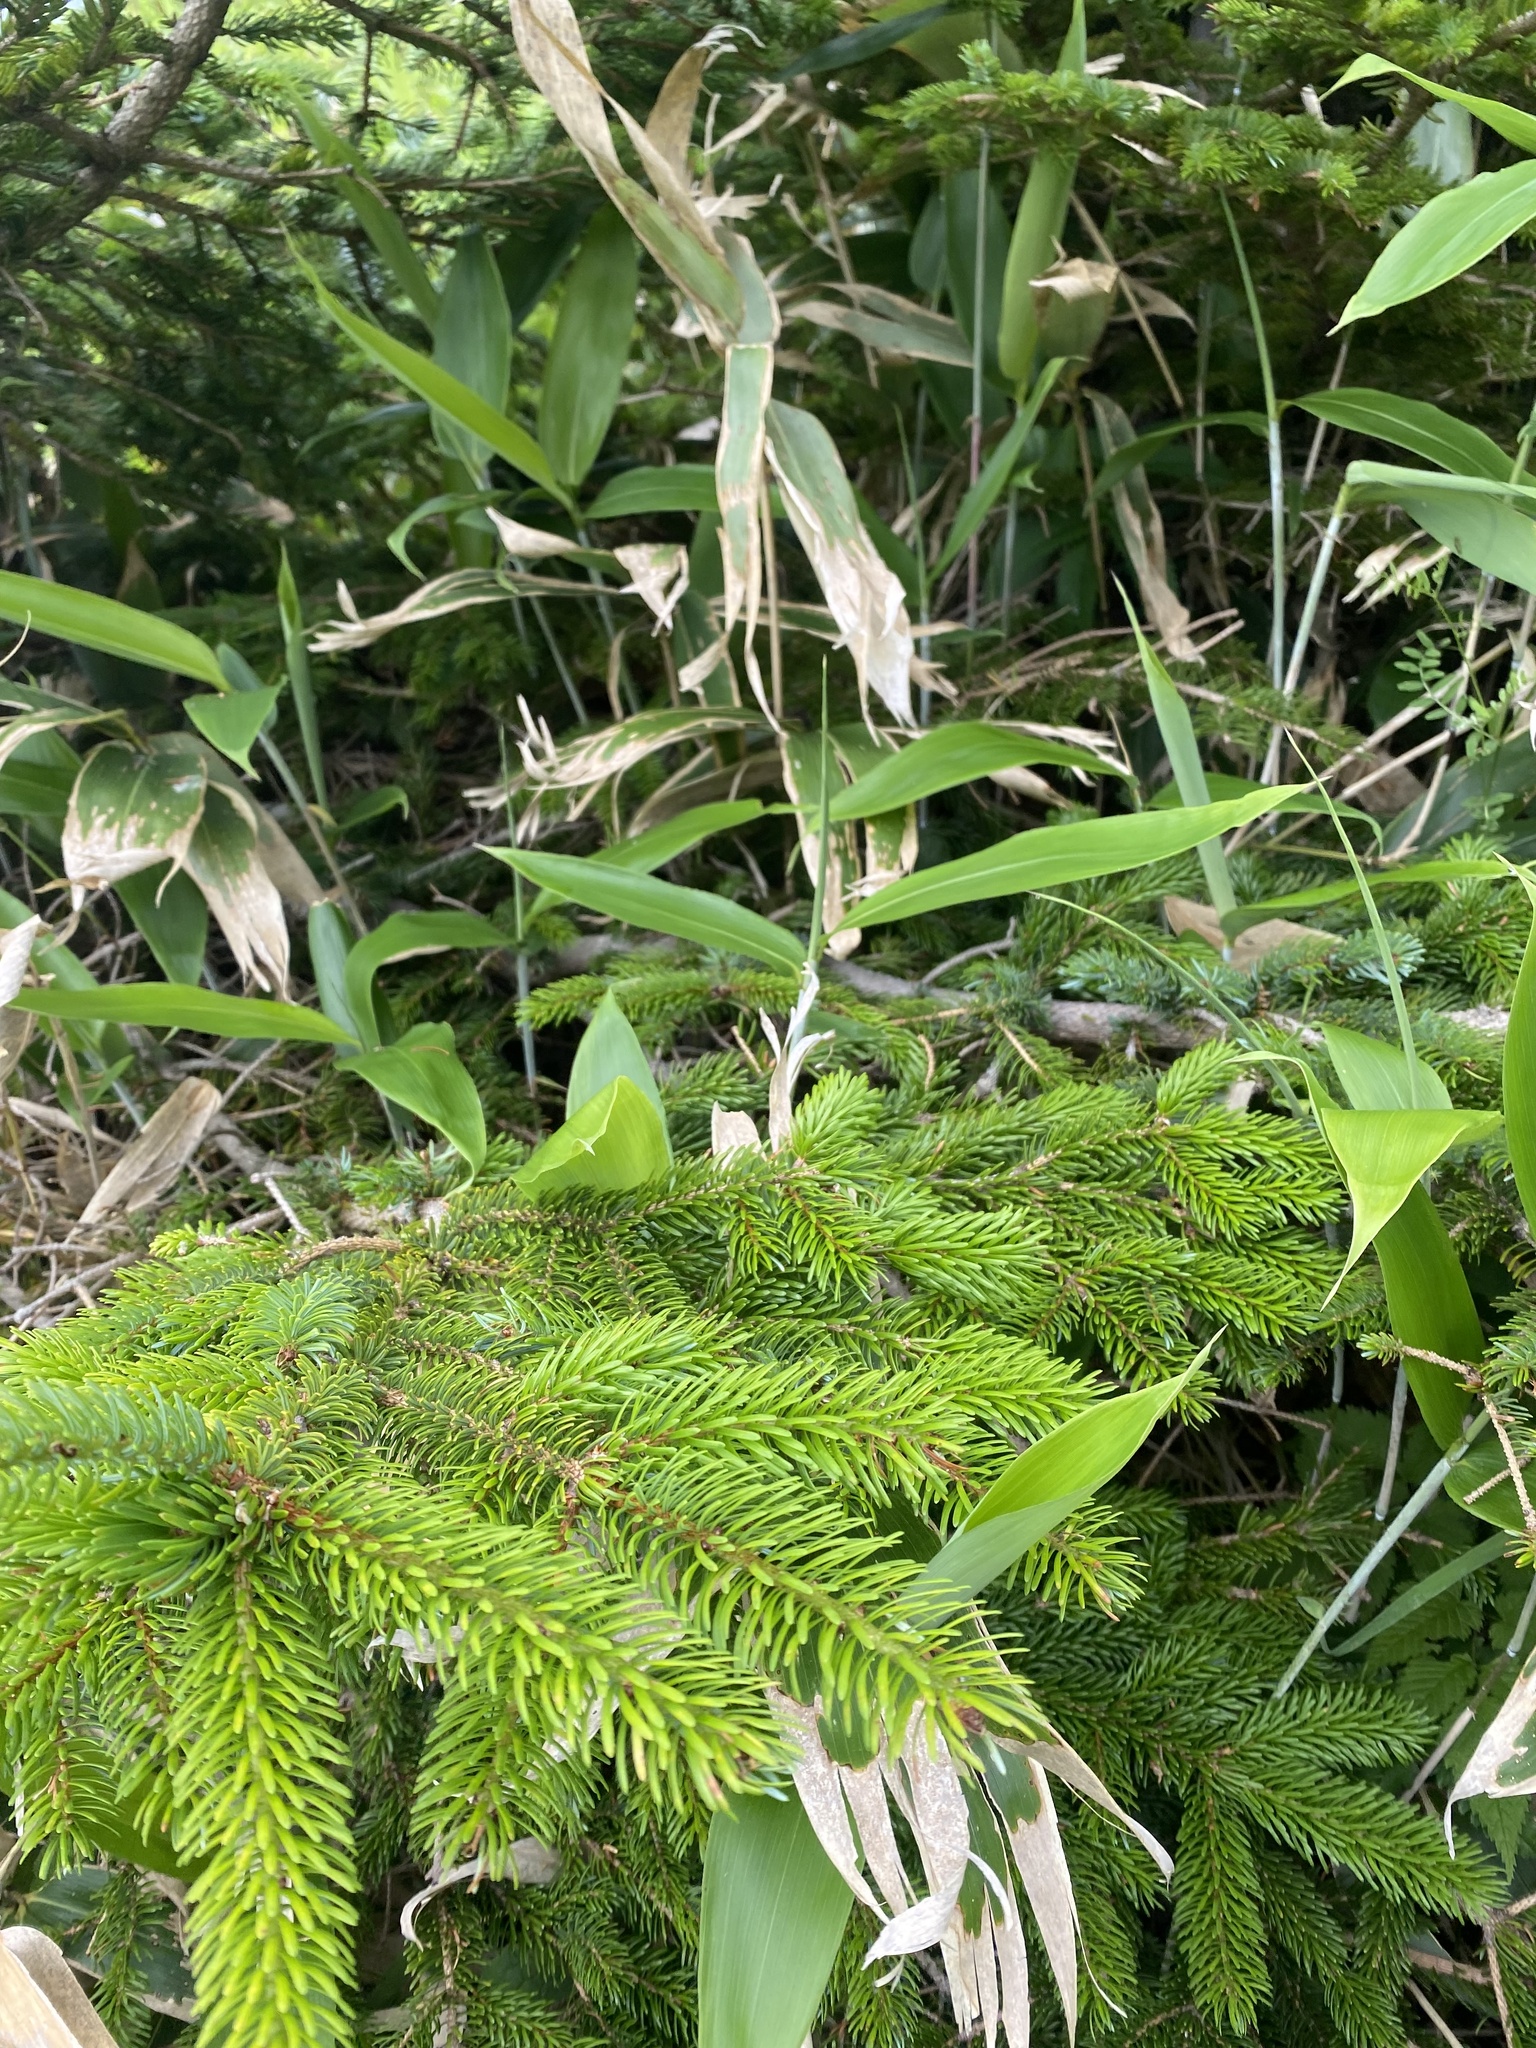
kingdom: Plantae
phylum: Tracheophyta
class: Pinopsida
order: Pinales
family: Pinaceae
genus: Picea
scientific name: Picea jezoensis
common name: Yeddo spruce
